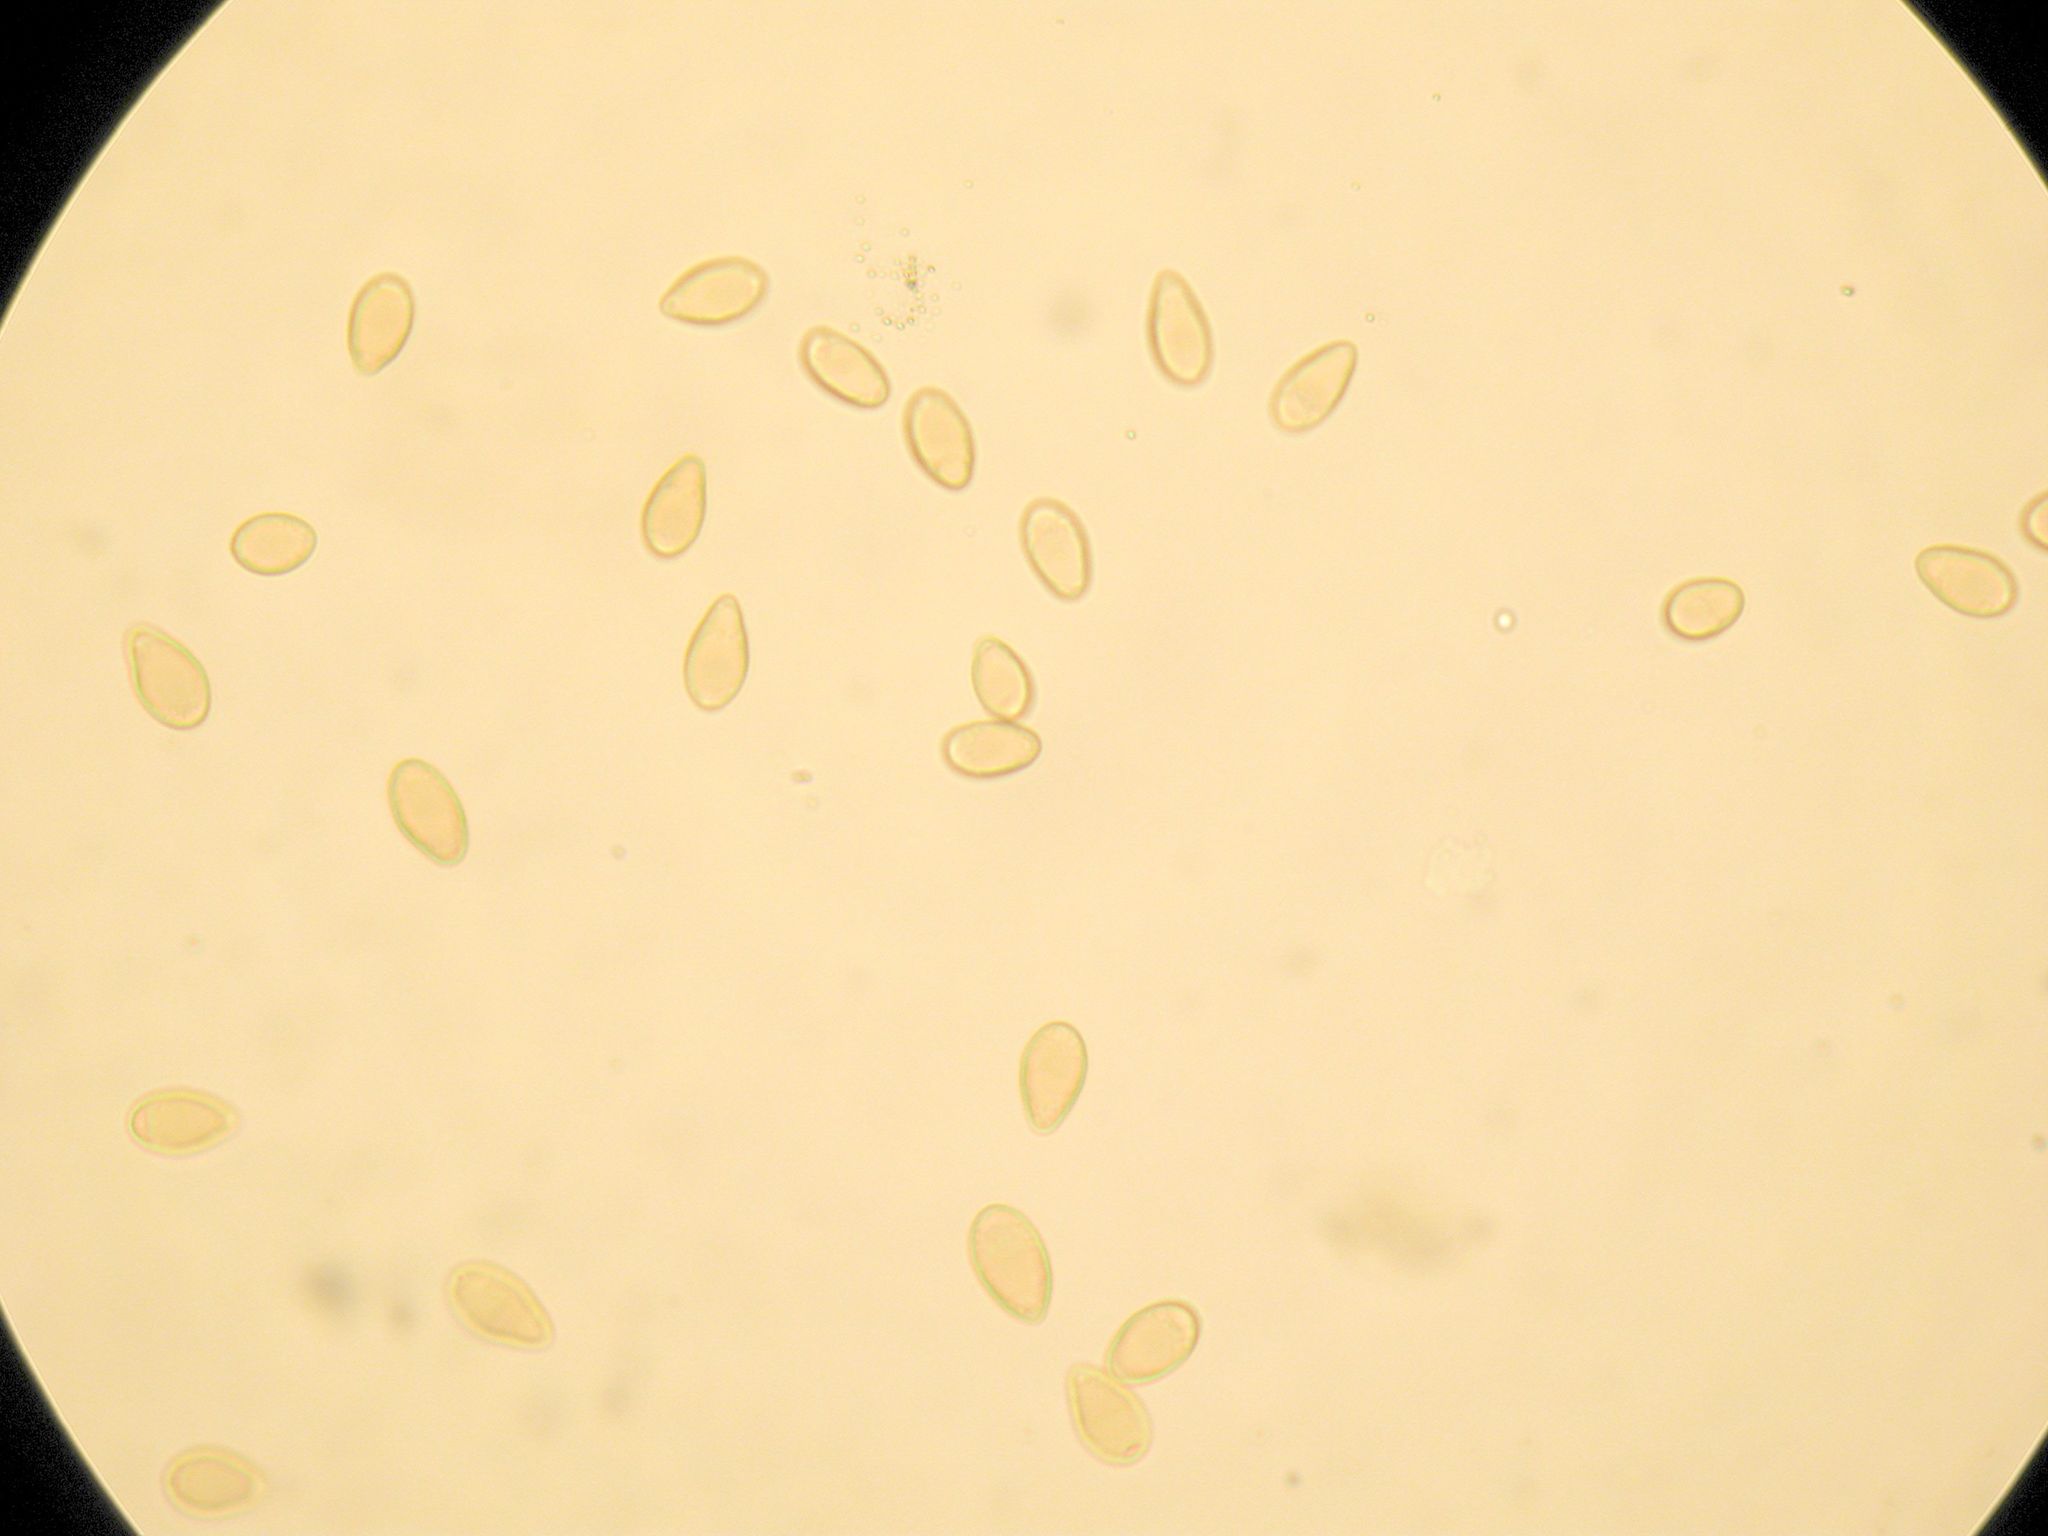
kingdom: Fungi
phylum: Basidiomycota
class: Agaricomycetes
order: Boletales
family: Paxillaceae
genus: Paxillus
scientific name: Paxillus cuprinus
